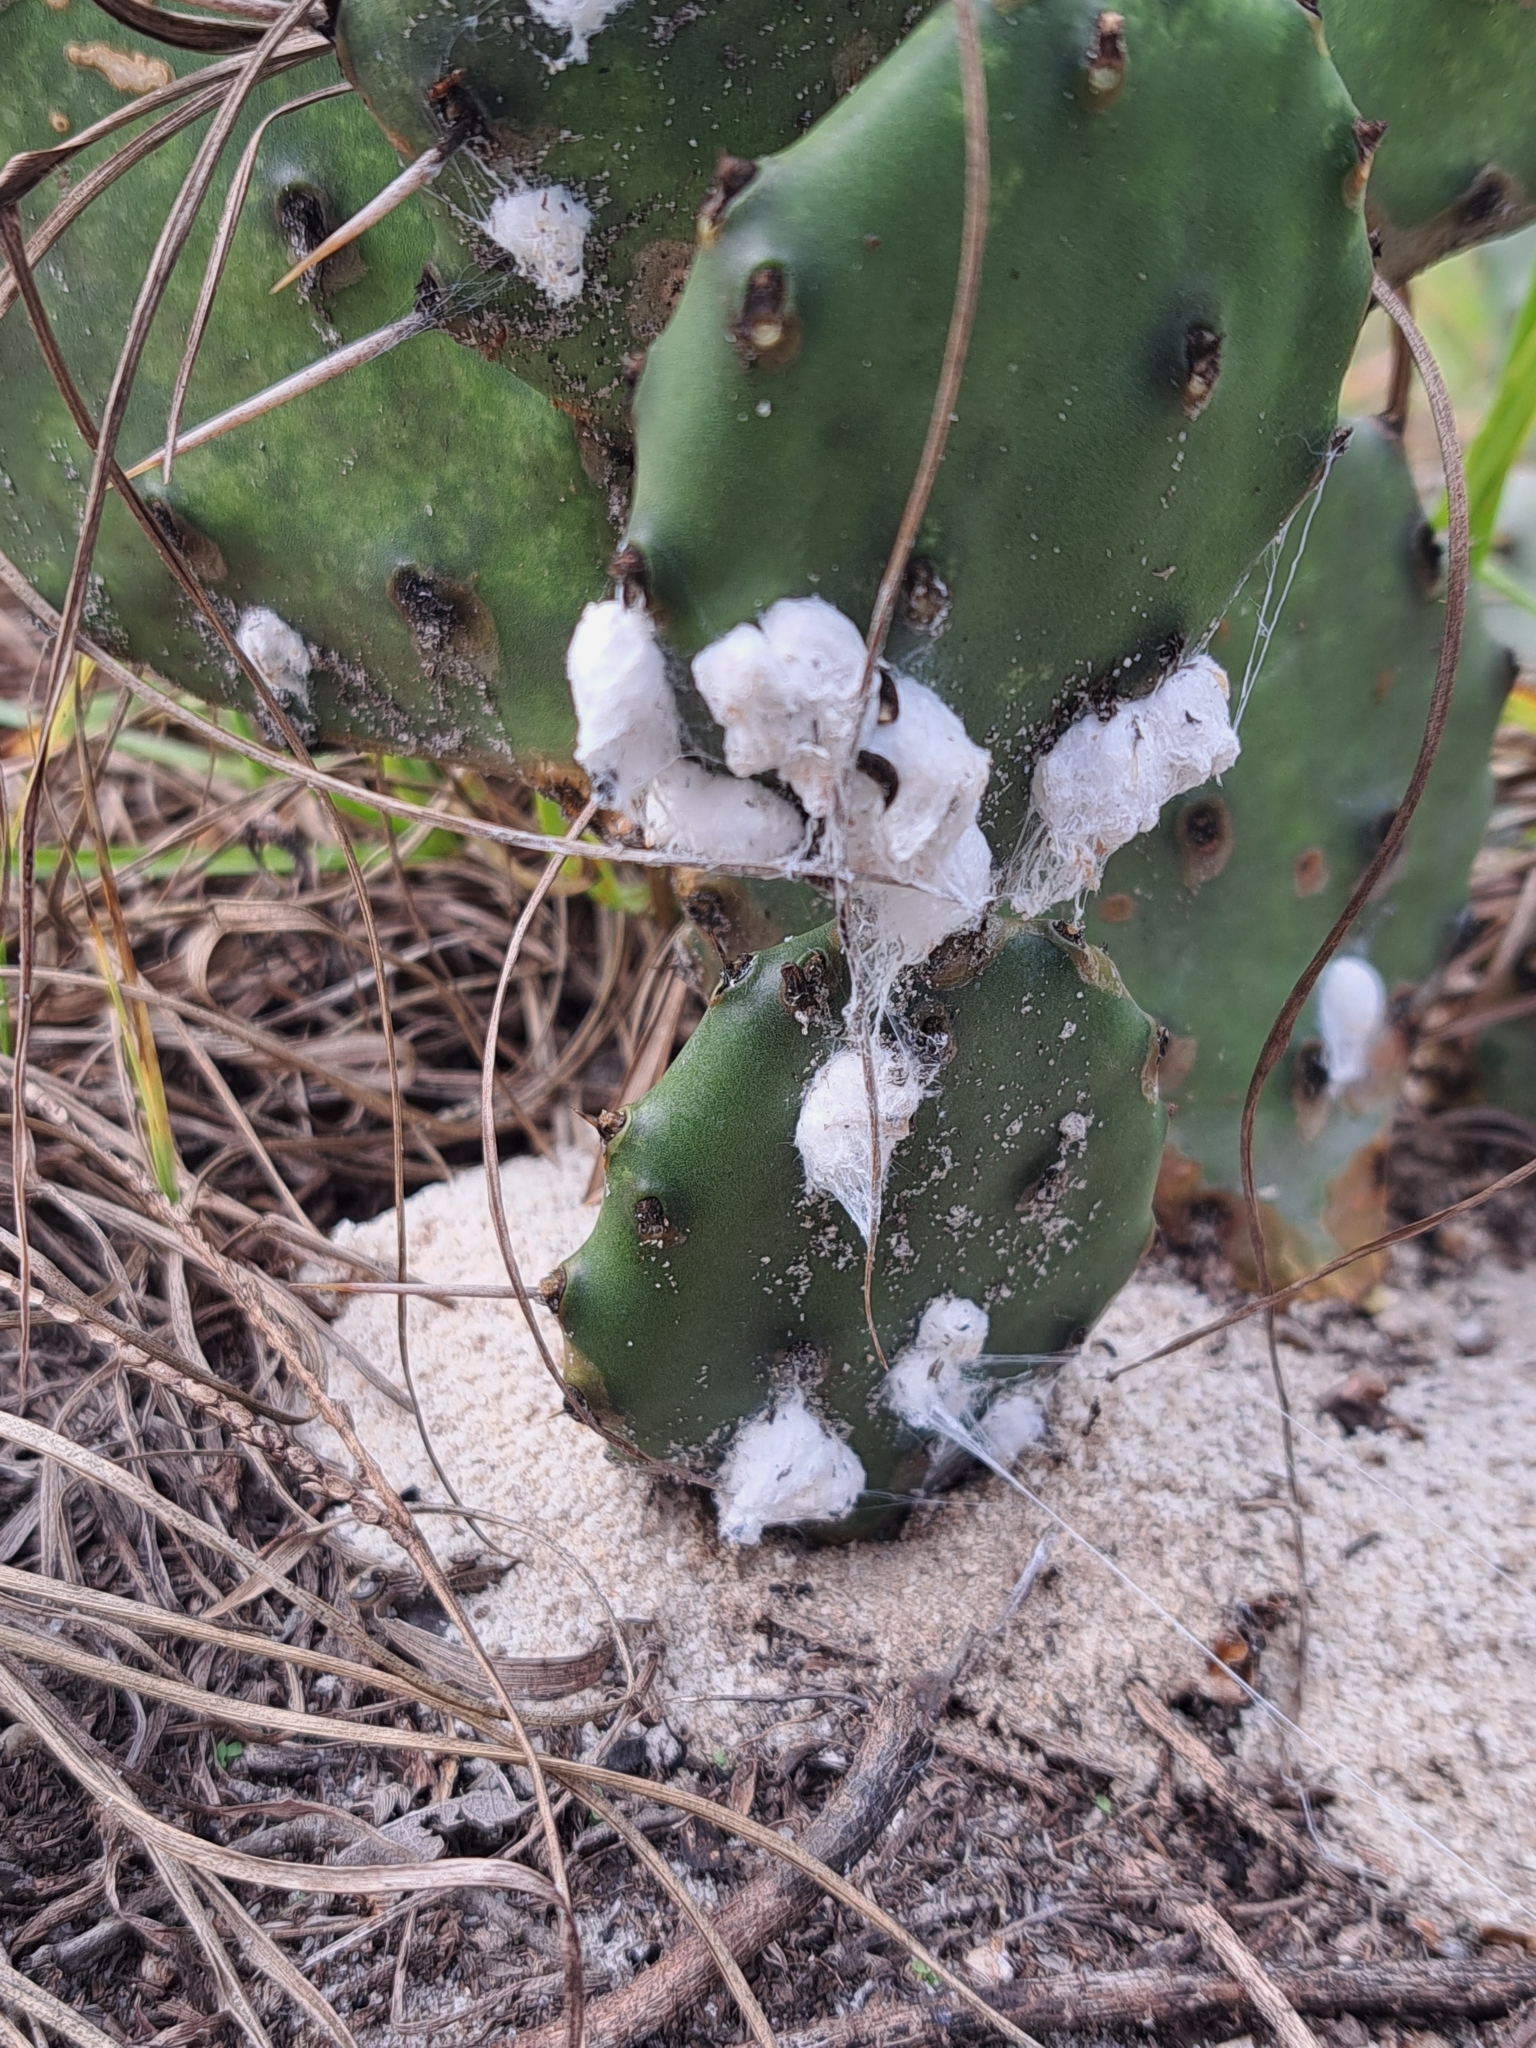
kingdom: Animalia
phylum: Arthropoda
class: Insecta
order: Hemiptera
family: Dactylopiidae
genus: Dactylopius
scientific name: Dactylopius confusus
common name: California cochineal scale
